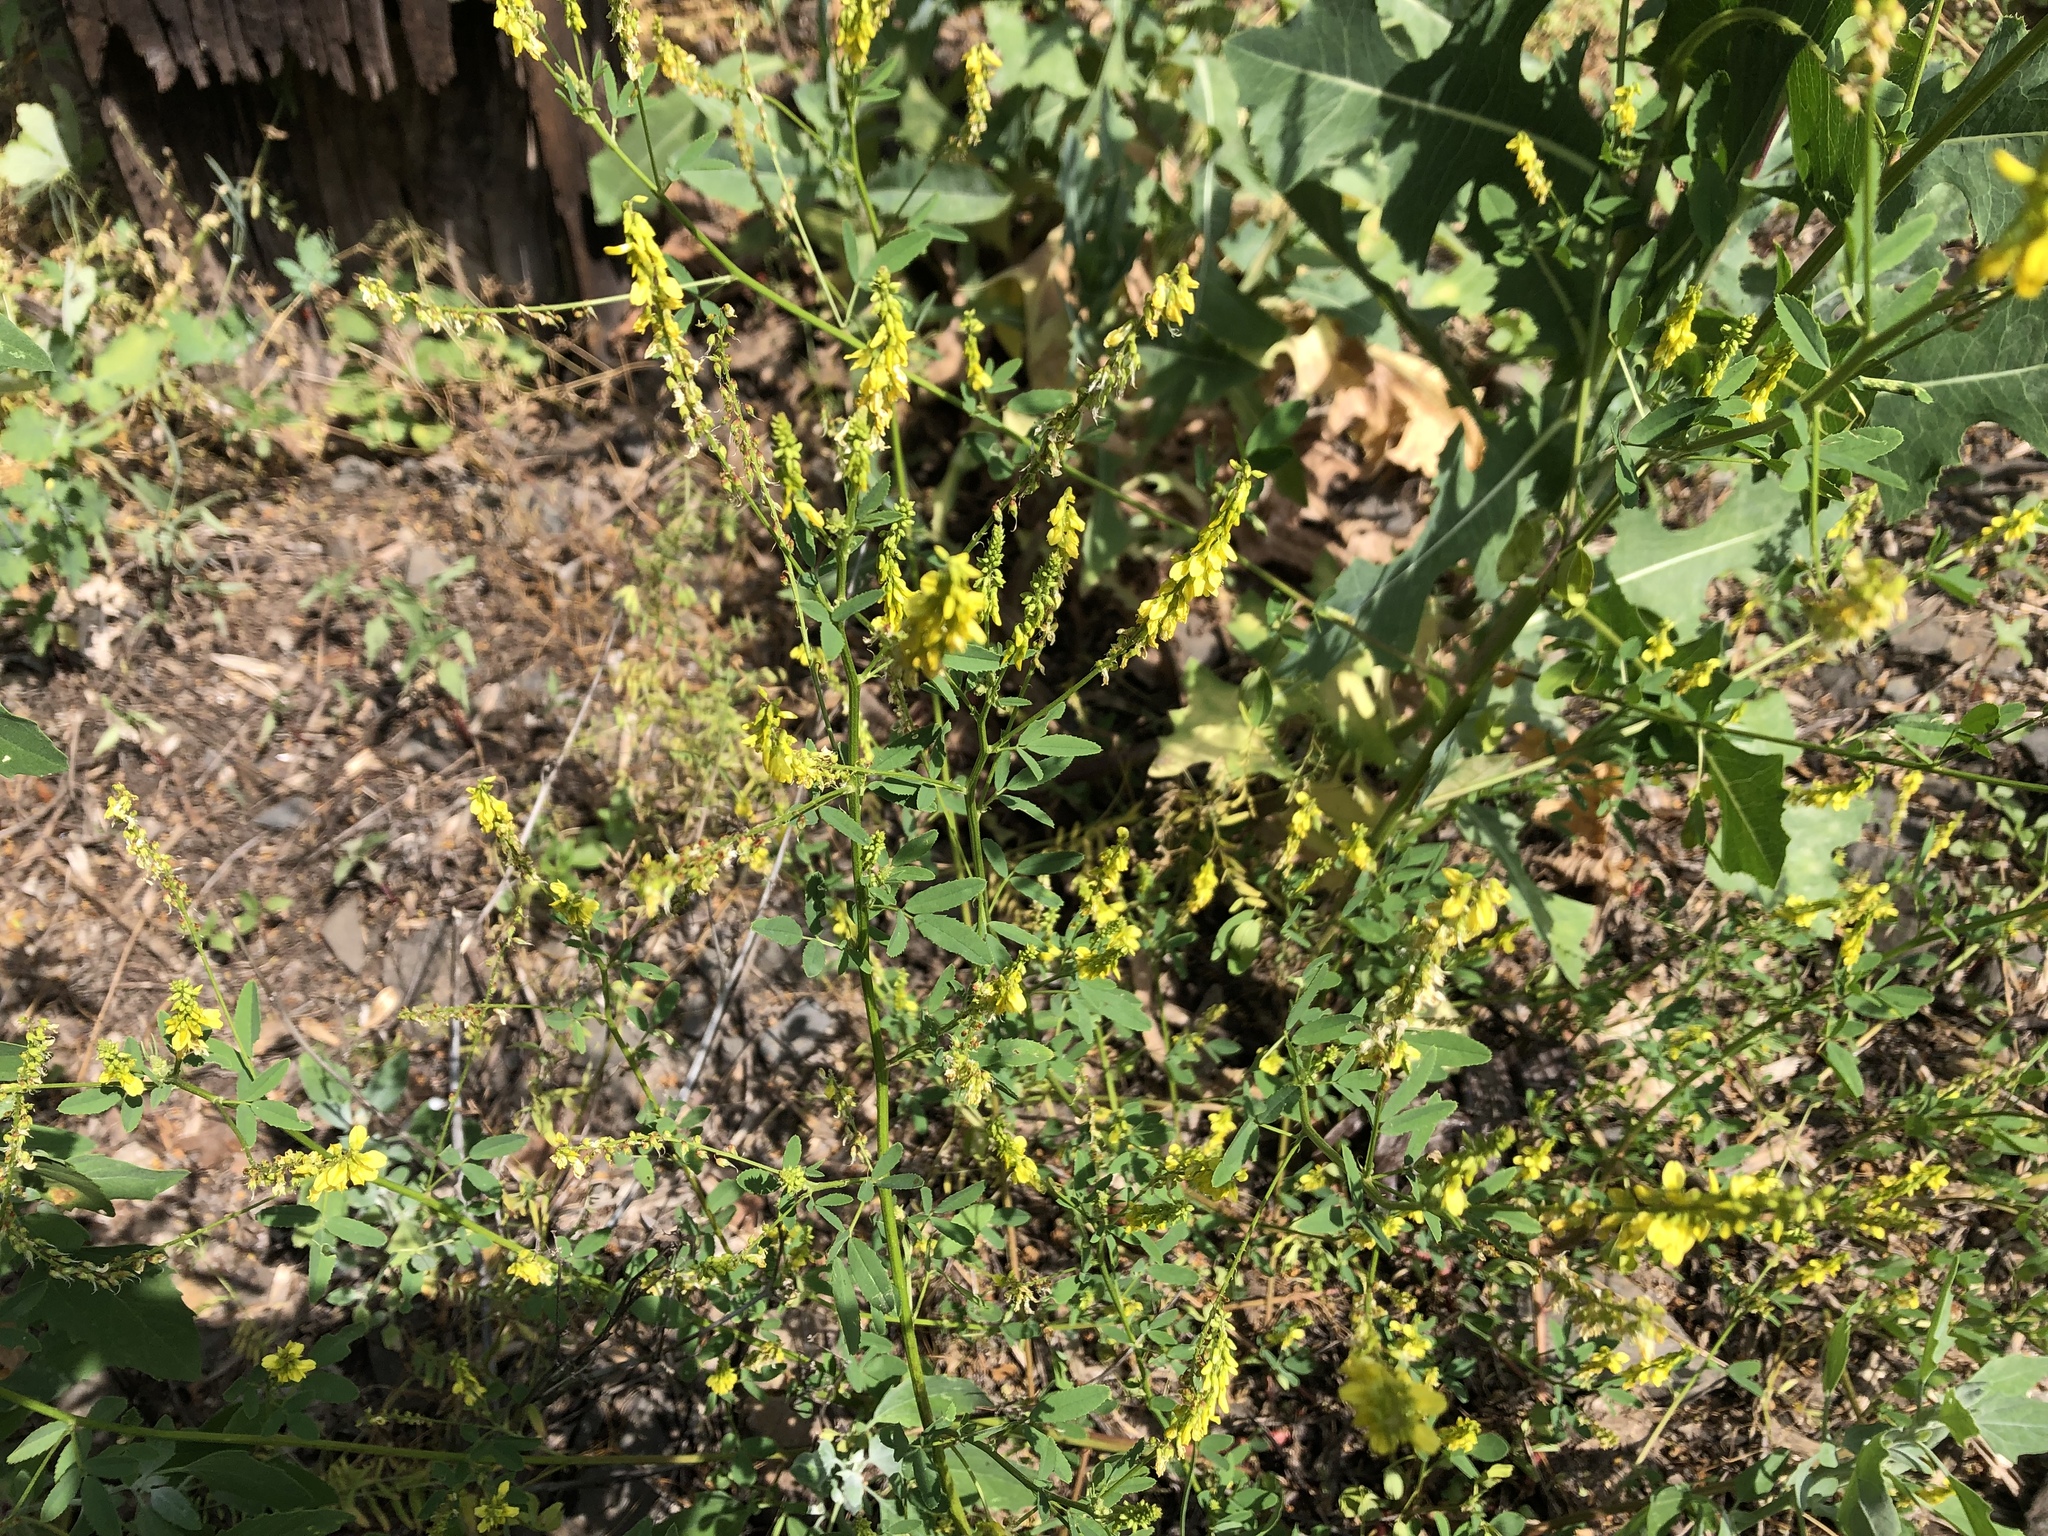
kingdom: Plantae
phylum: Tracheophyta
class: Magnoliopsida
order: Fabales
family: Fabaceae
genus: Melilotus
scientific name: Melilotus officinalis
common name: Sweetclover
